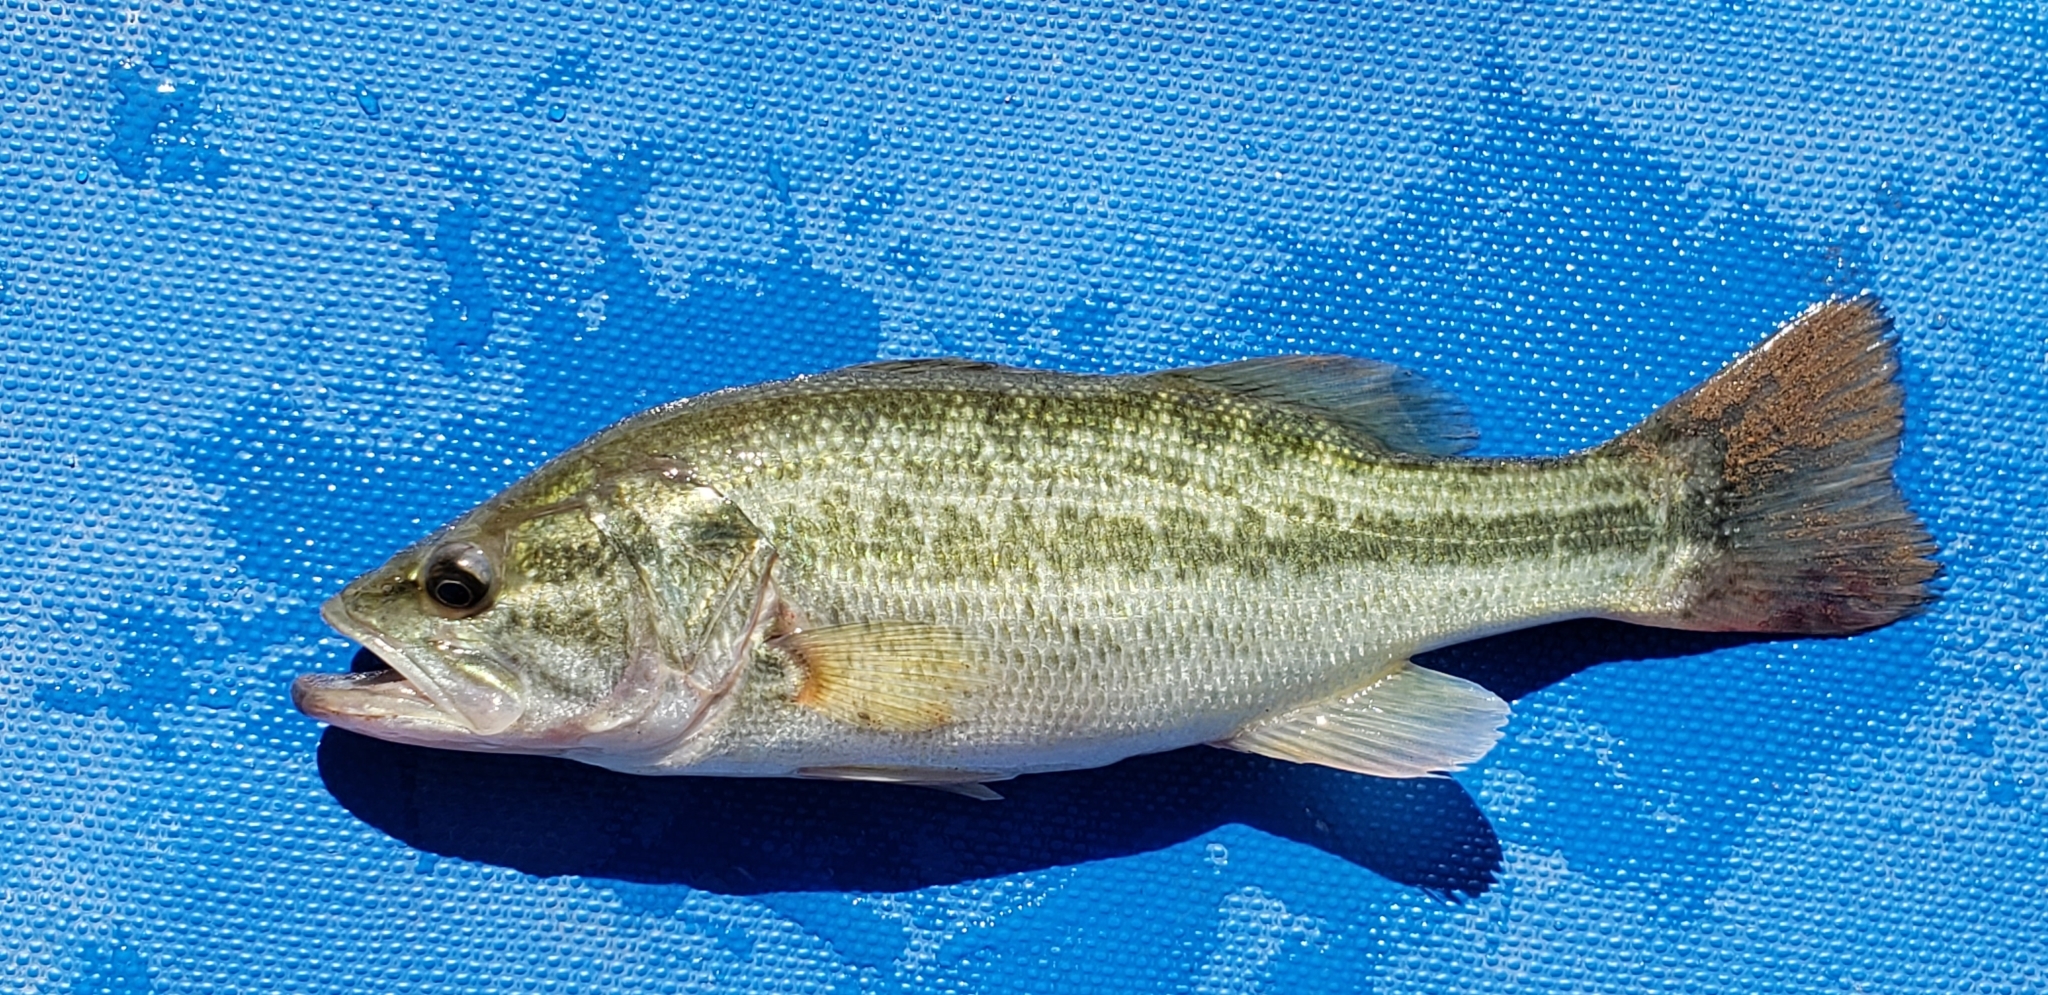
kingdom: Animalia
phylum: Chordata
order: Perciformes
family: Centrarchidae
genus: Micropterus
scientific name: Micropterus
